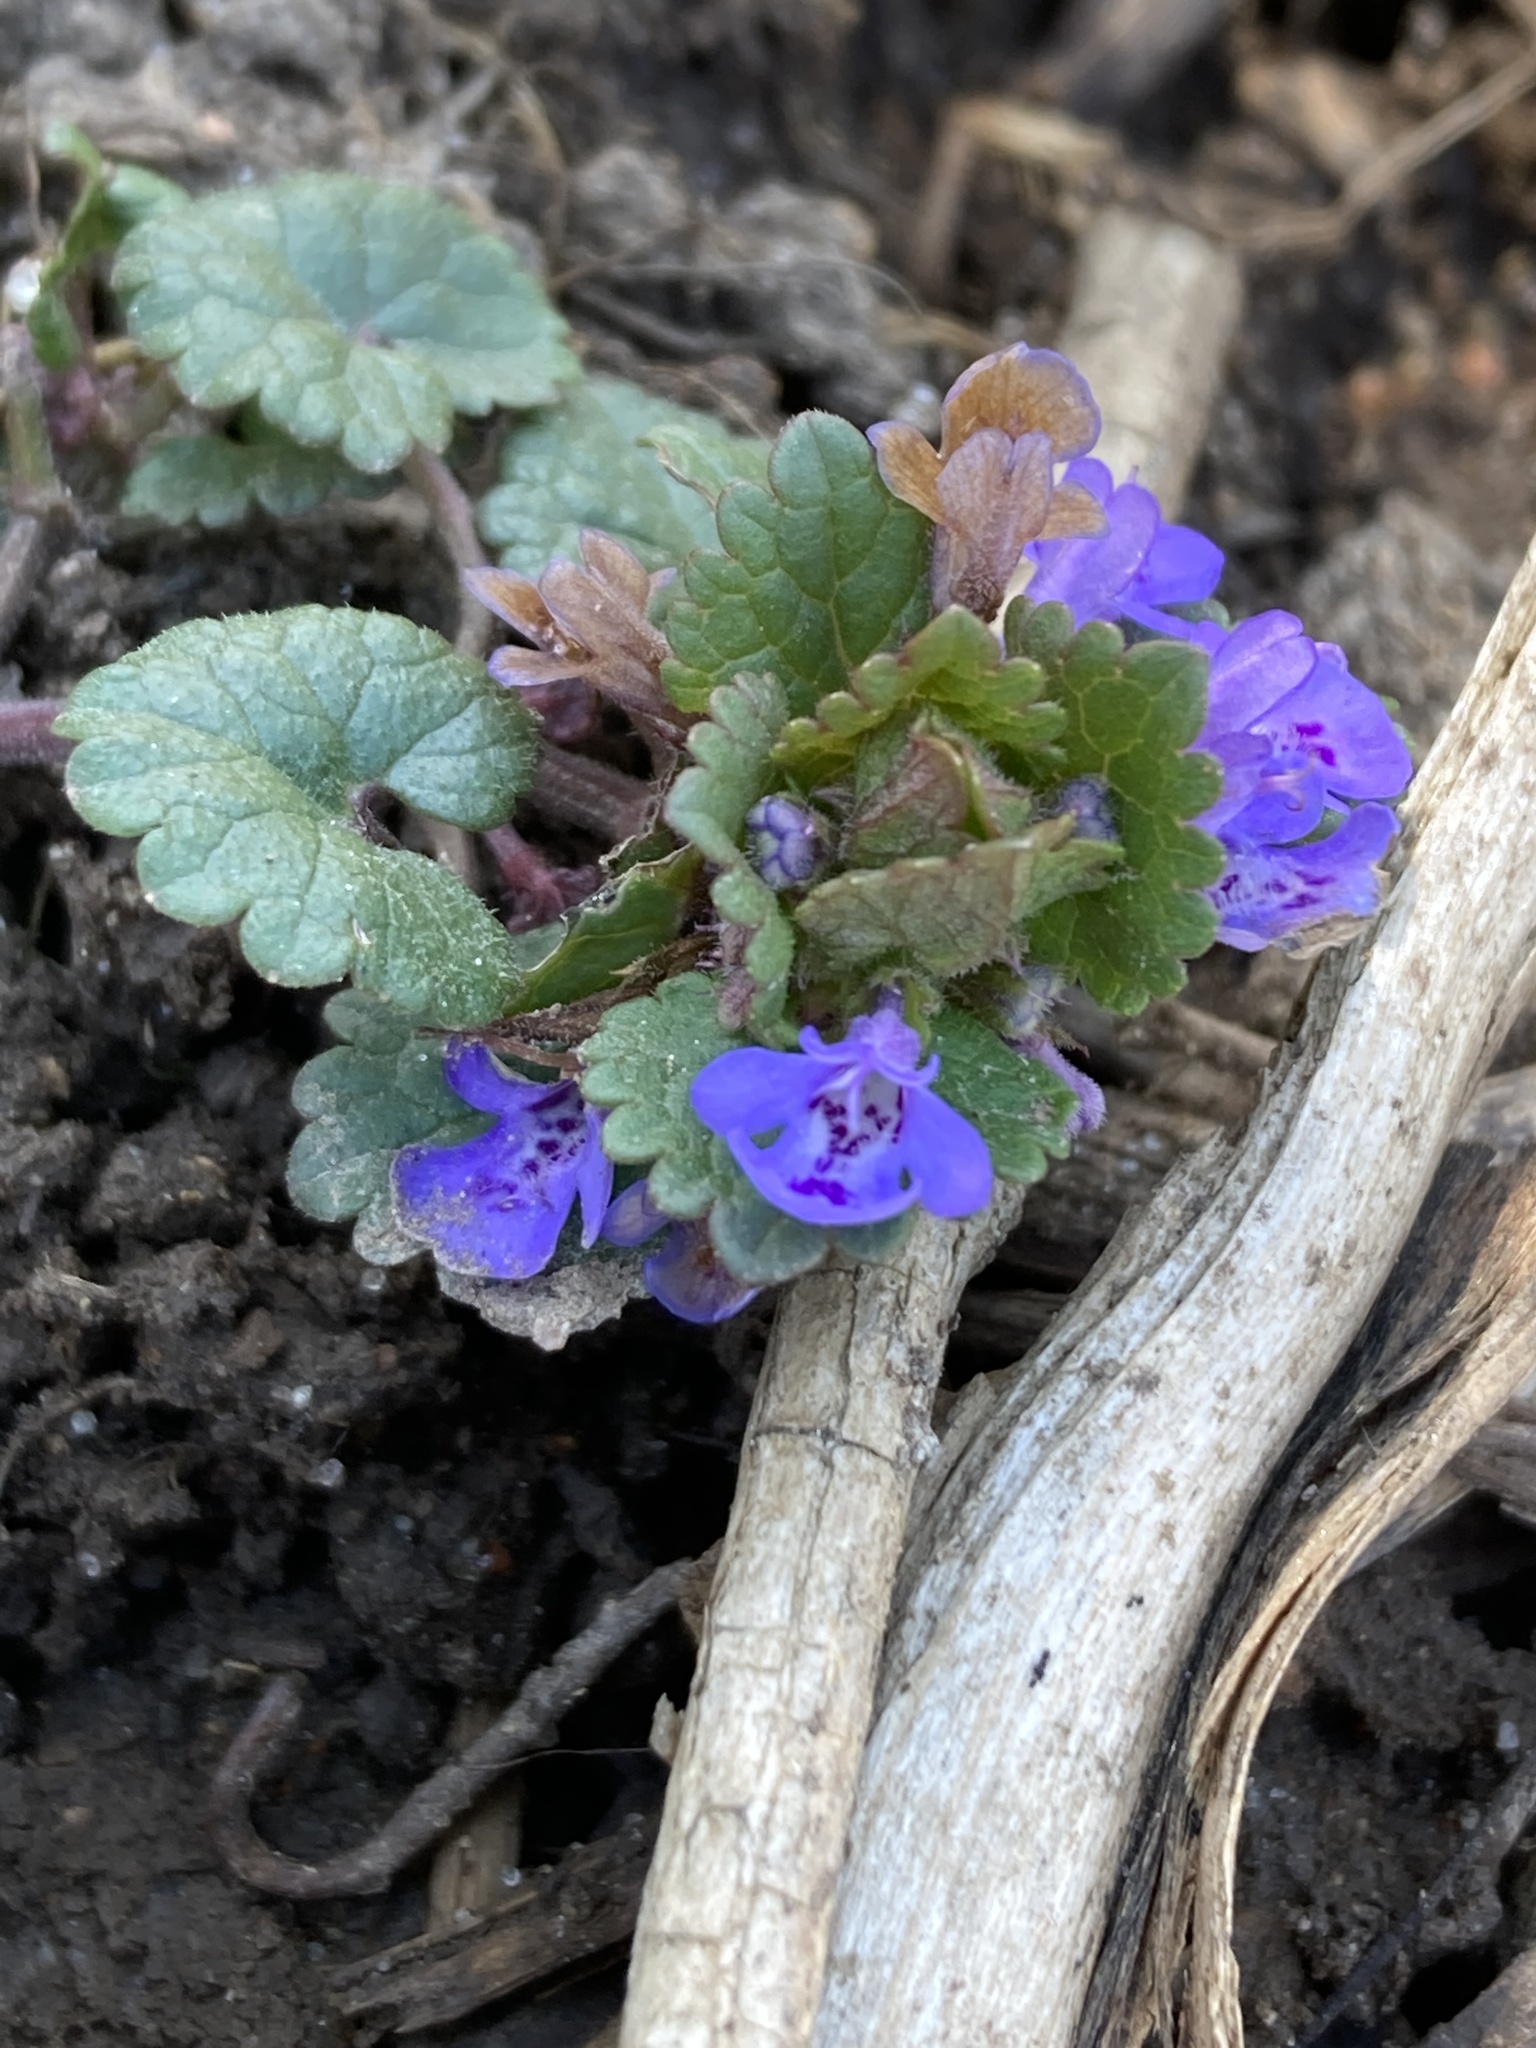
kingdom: Plantae
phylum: Tracheophyta
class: Magnoliopsida
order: Lamiales
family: Lamiaceae
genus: Glechoma
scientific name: Glechoma hederacea
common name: Ground ivy
